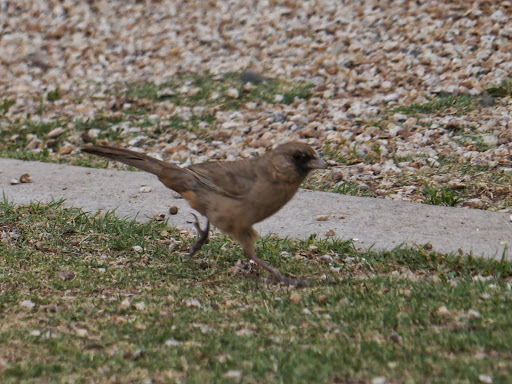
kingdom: Animalia
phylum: Chordata
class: Aves
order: Passeriformes
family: Passerellidae
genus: Melozone
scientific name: Melozone aberti
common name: Abert's towhee
